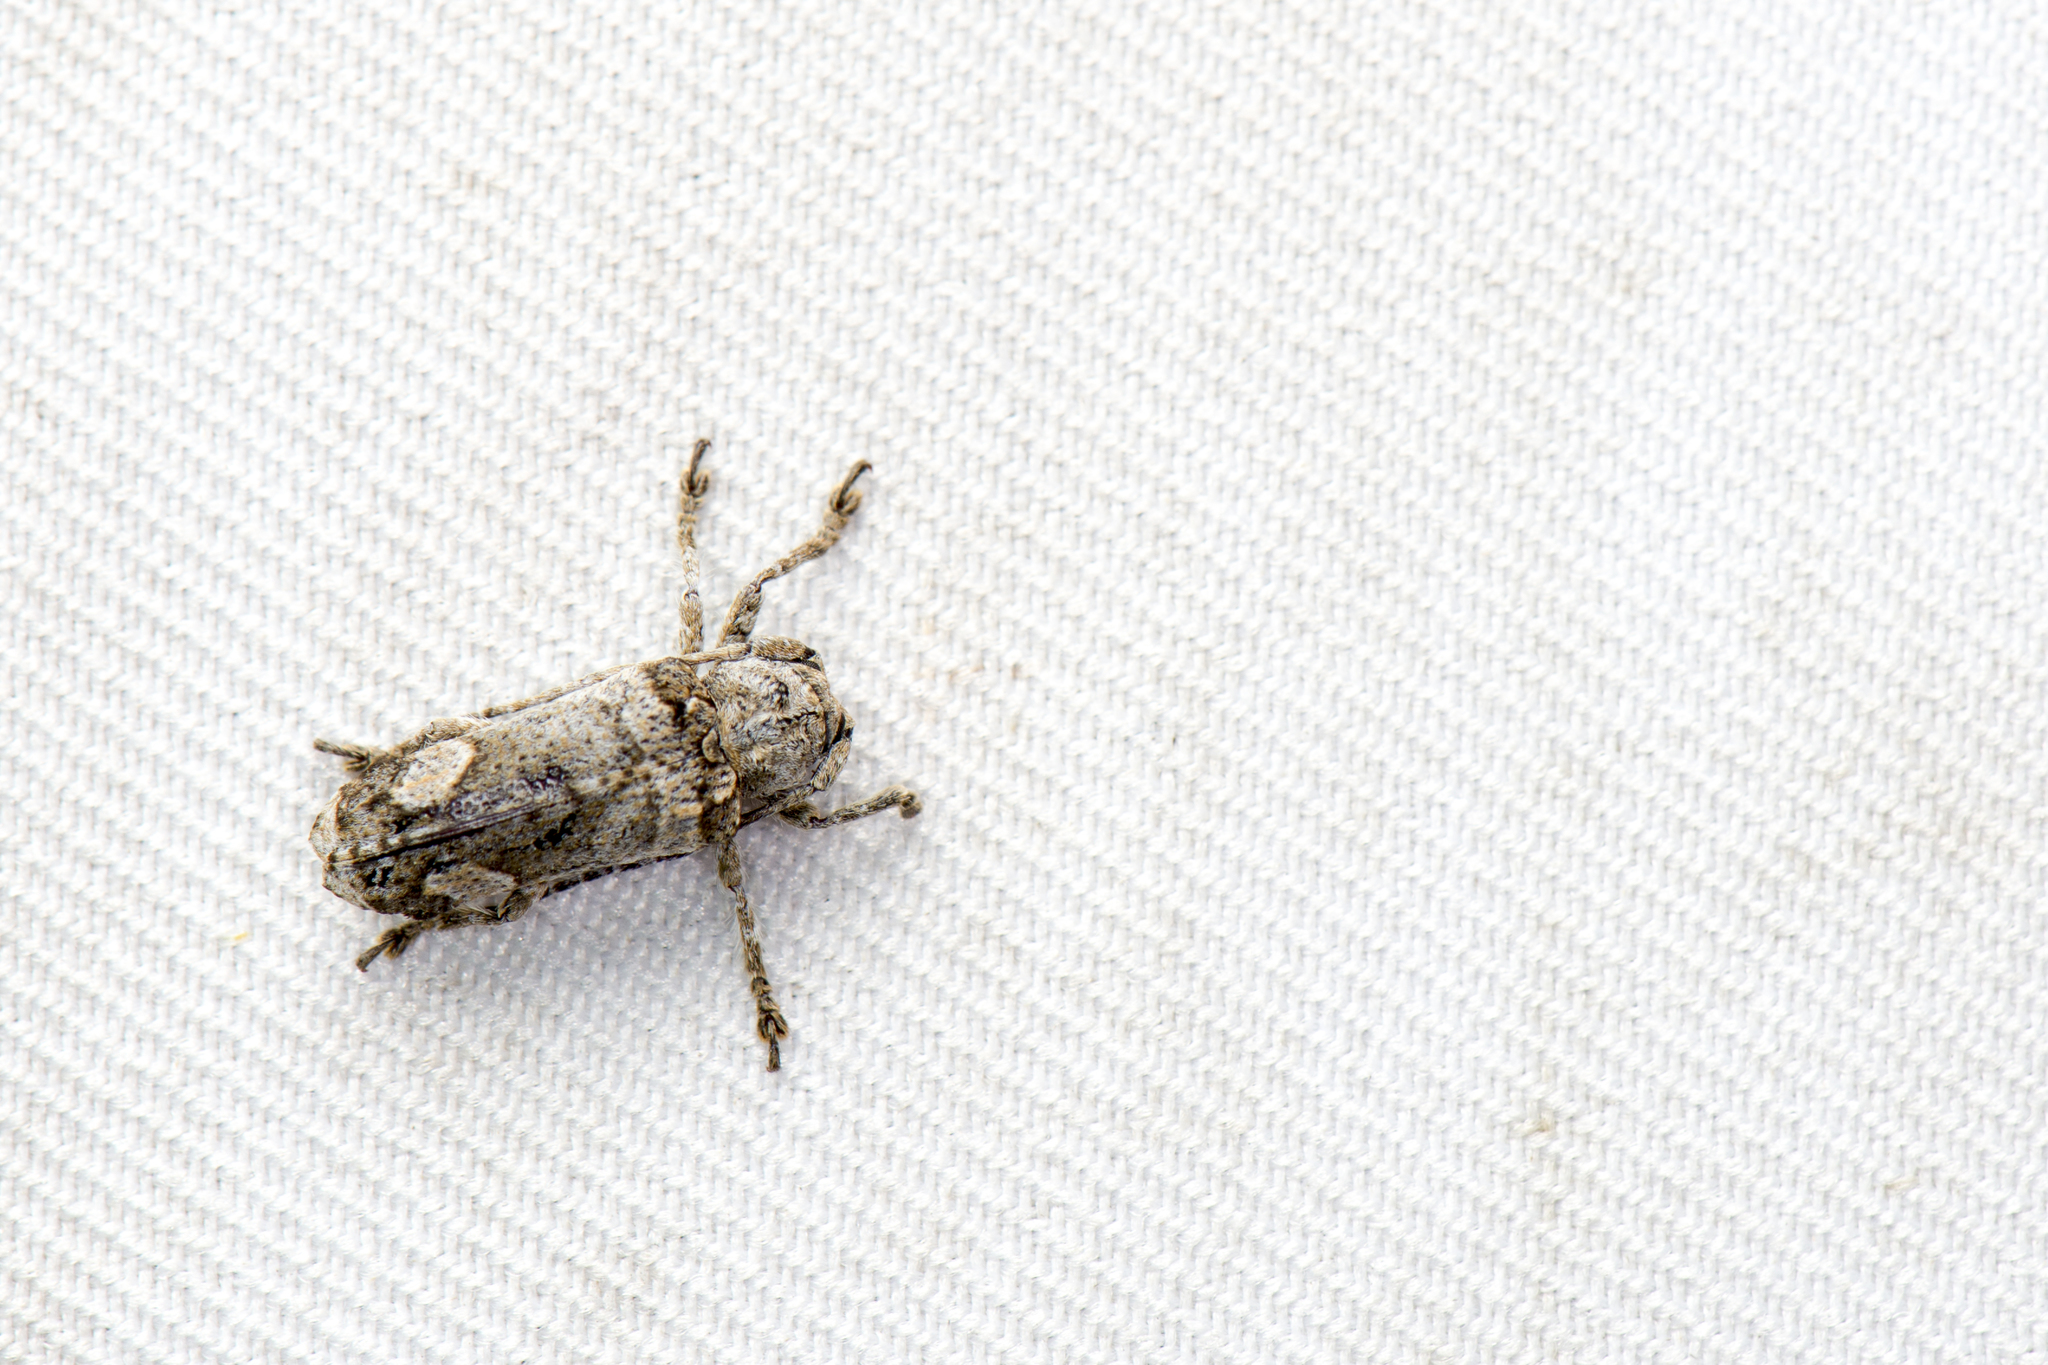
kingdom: Animalia
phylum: Arthropoda
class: Insecta
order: Coleoptera
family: Cerambycidae
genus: Nipholophia
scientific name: Nipholophia chujoi
